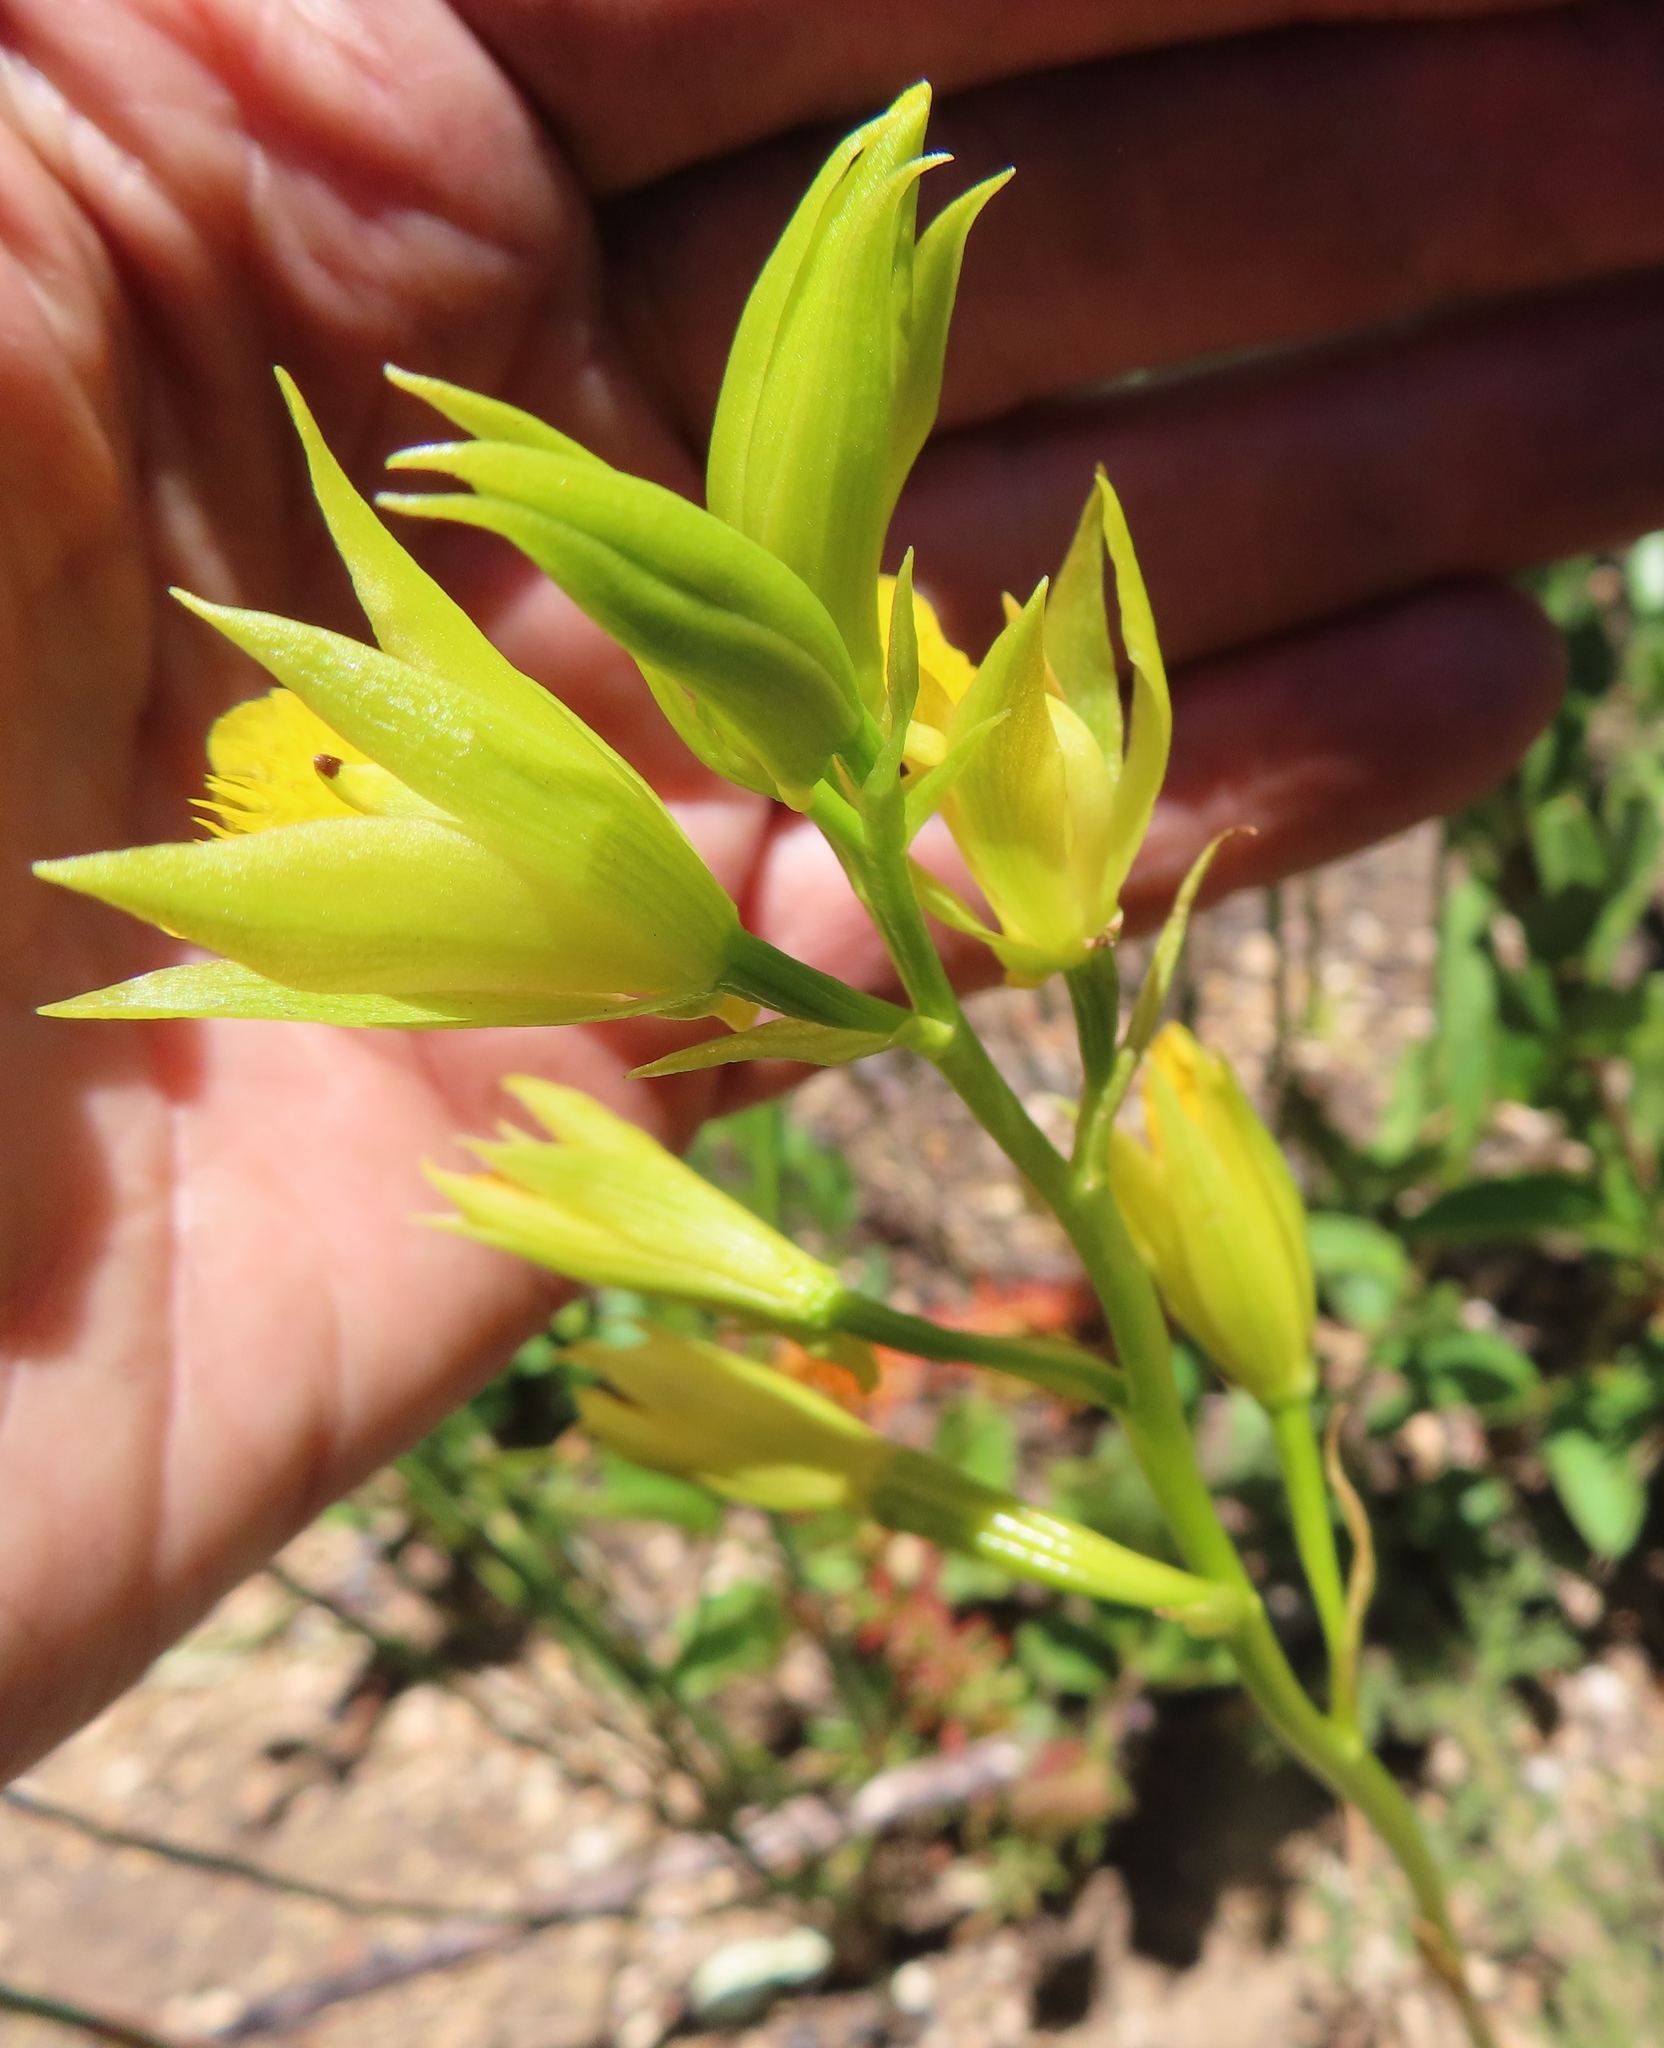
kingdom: Plantae
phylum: Tracheophyta
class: Liliopsida
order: Asparagales
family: Orchidaceae
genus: Eulophia
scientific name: Eulophia litoralis
